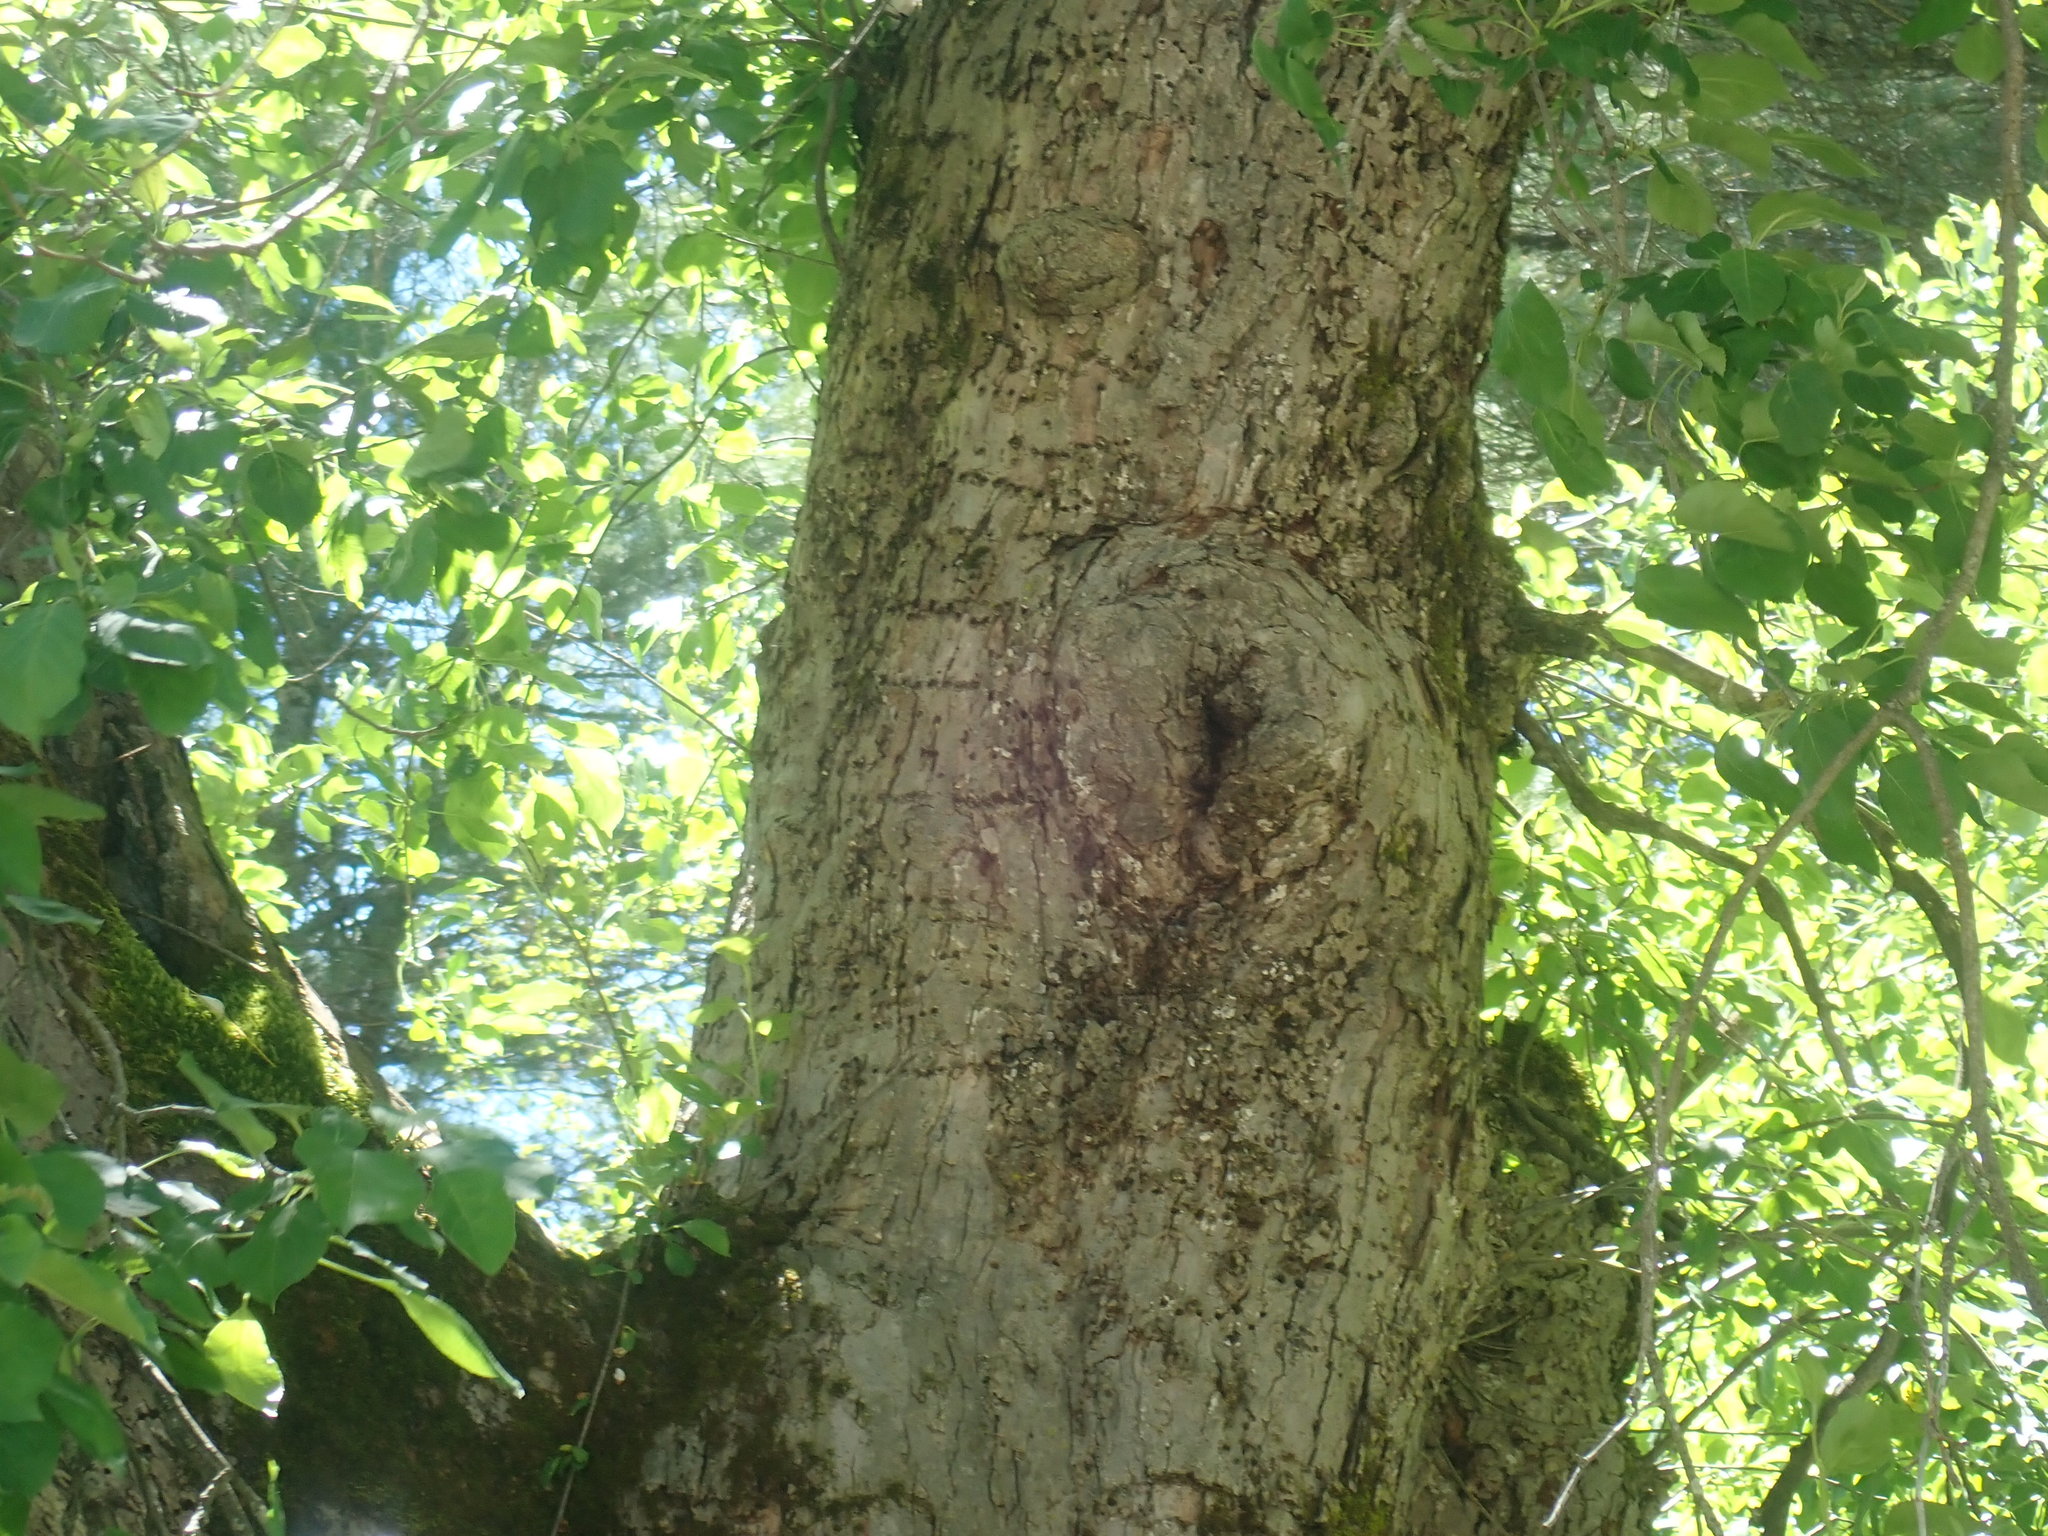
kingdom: Animalia
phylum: Chordata
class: Aves
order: Piciformes
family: Picidae
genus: Sphyrapicus
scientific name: Sphyrapicus varius
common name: Yellow-bellied sapsucker
